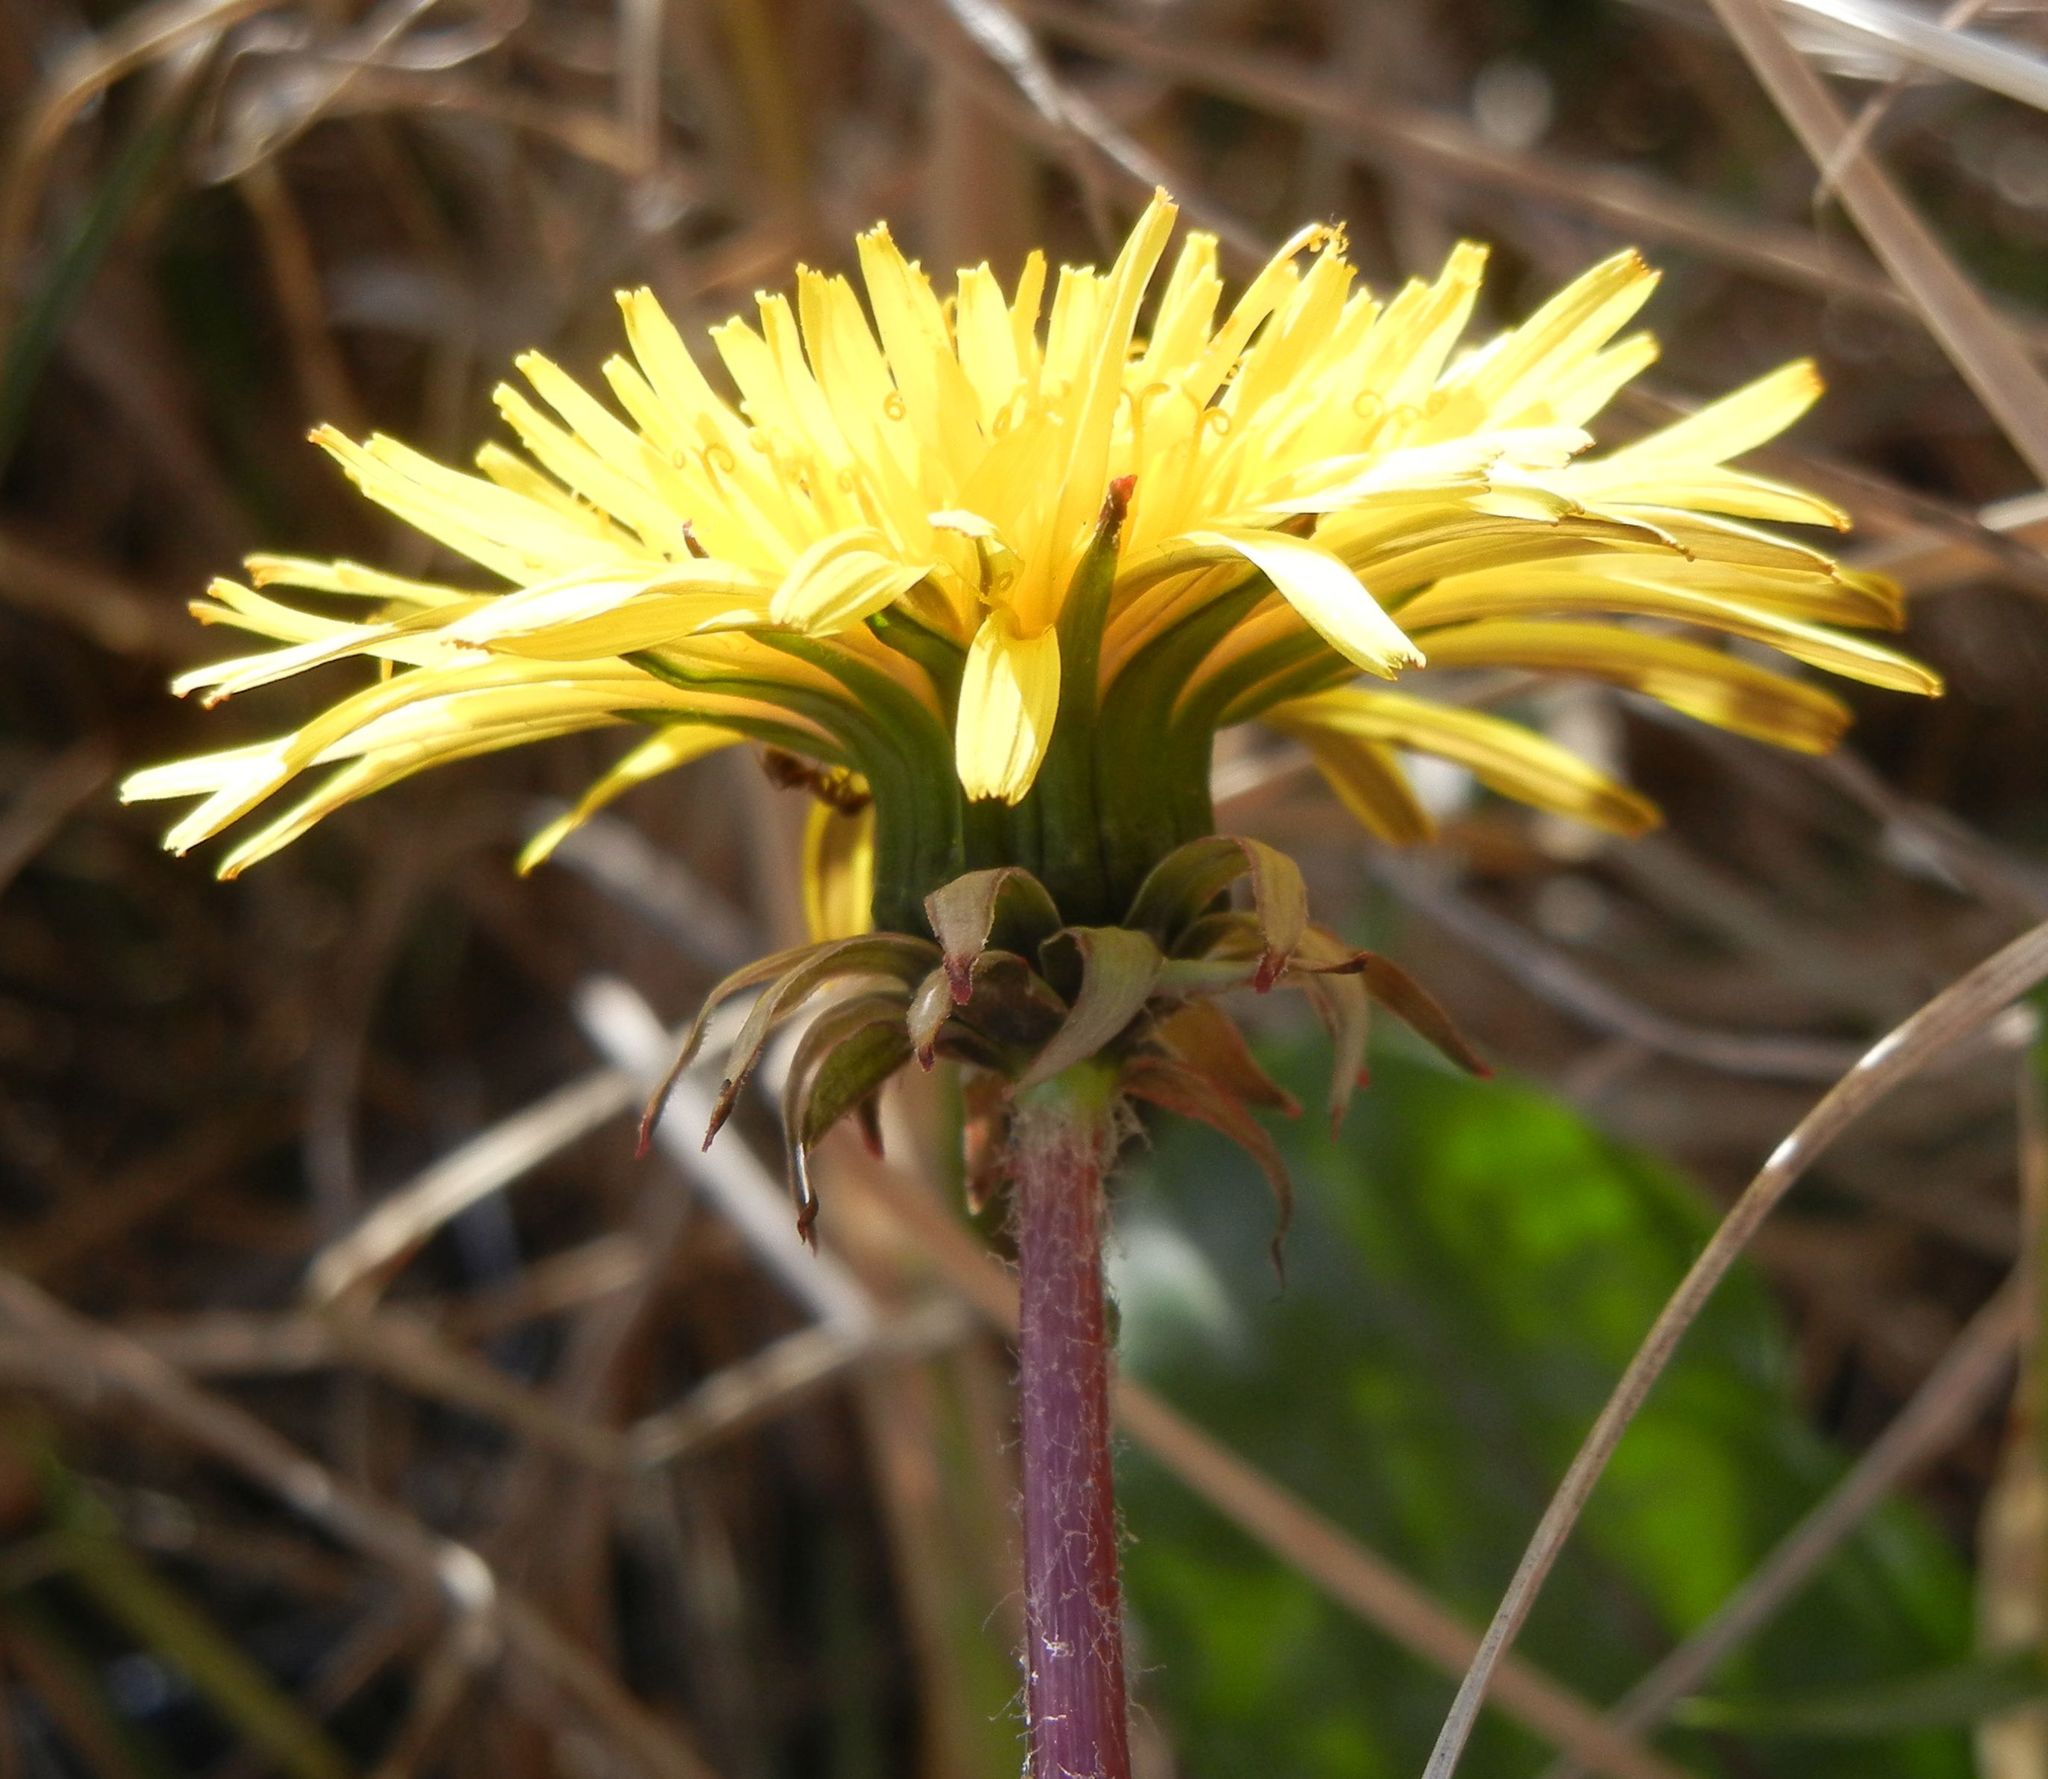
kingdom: Plantae
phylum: Tracheophyta
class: Magnoliopsida
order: Asterales
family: Asteraceae
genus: Taraxacum
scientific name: Taraxacum officinale
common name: Common dandelion
